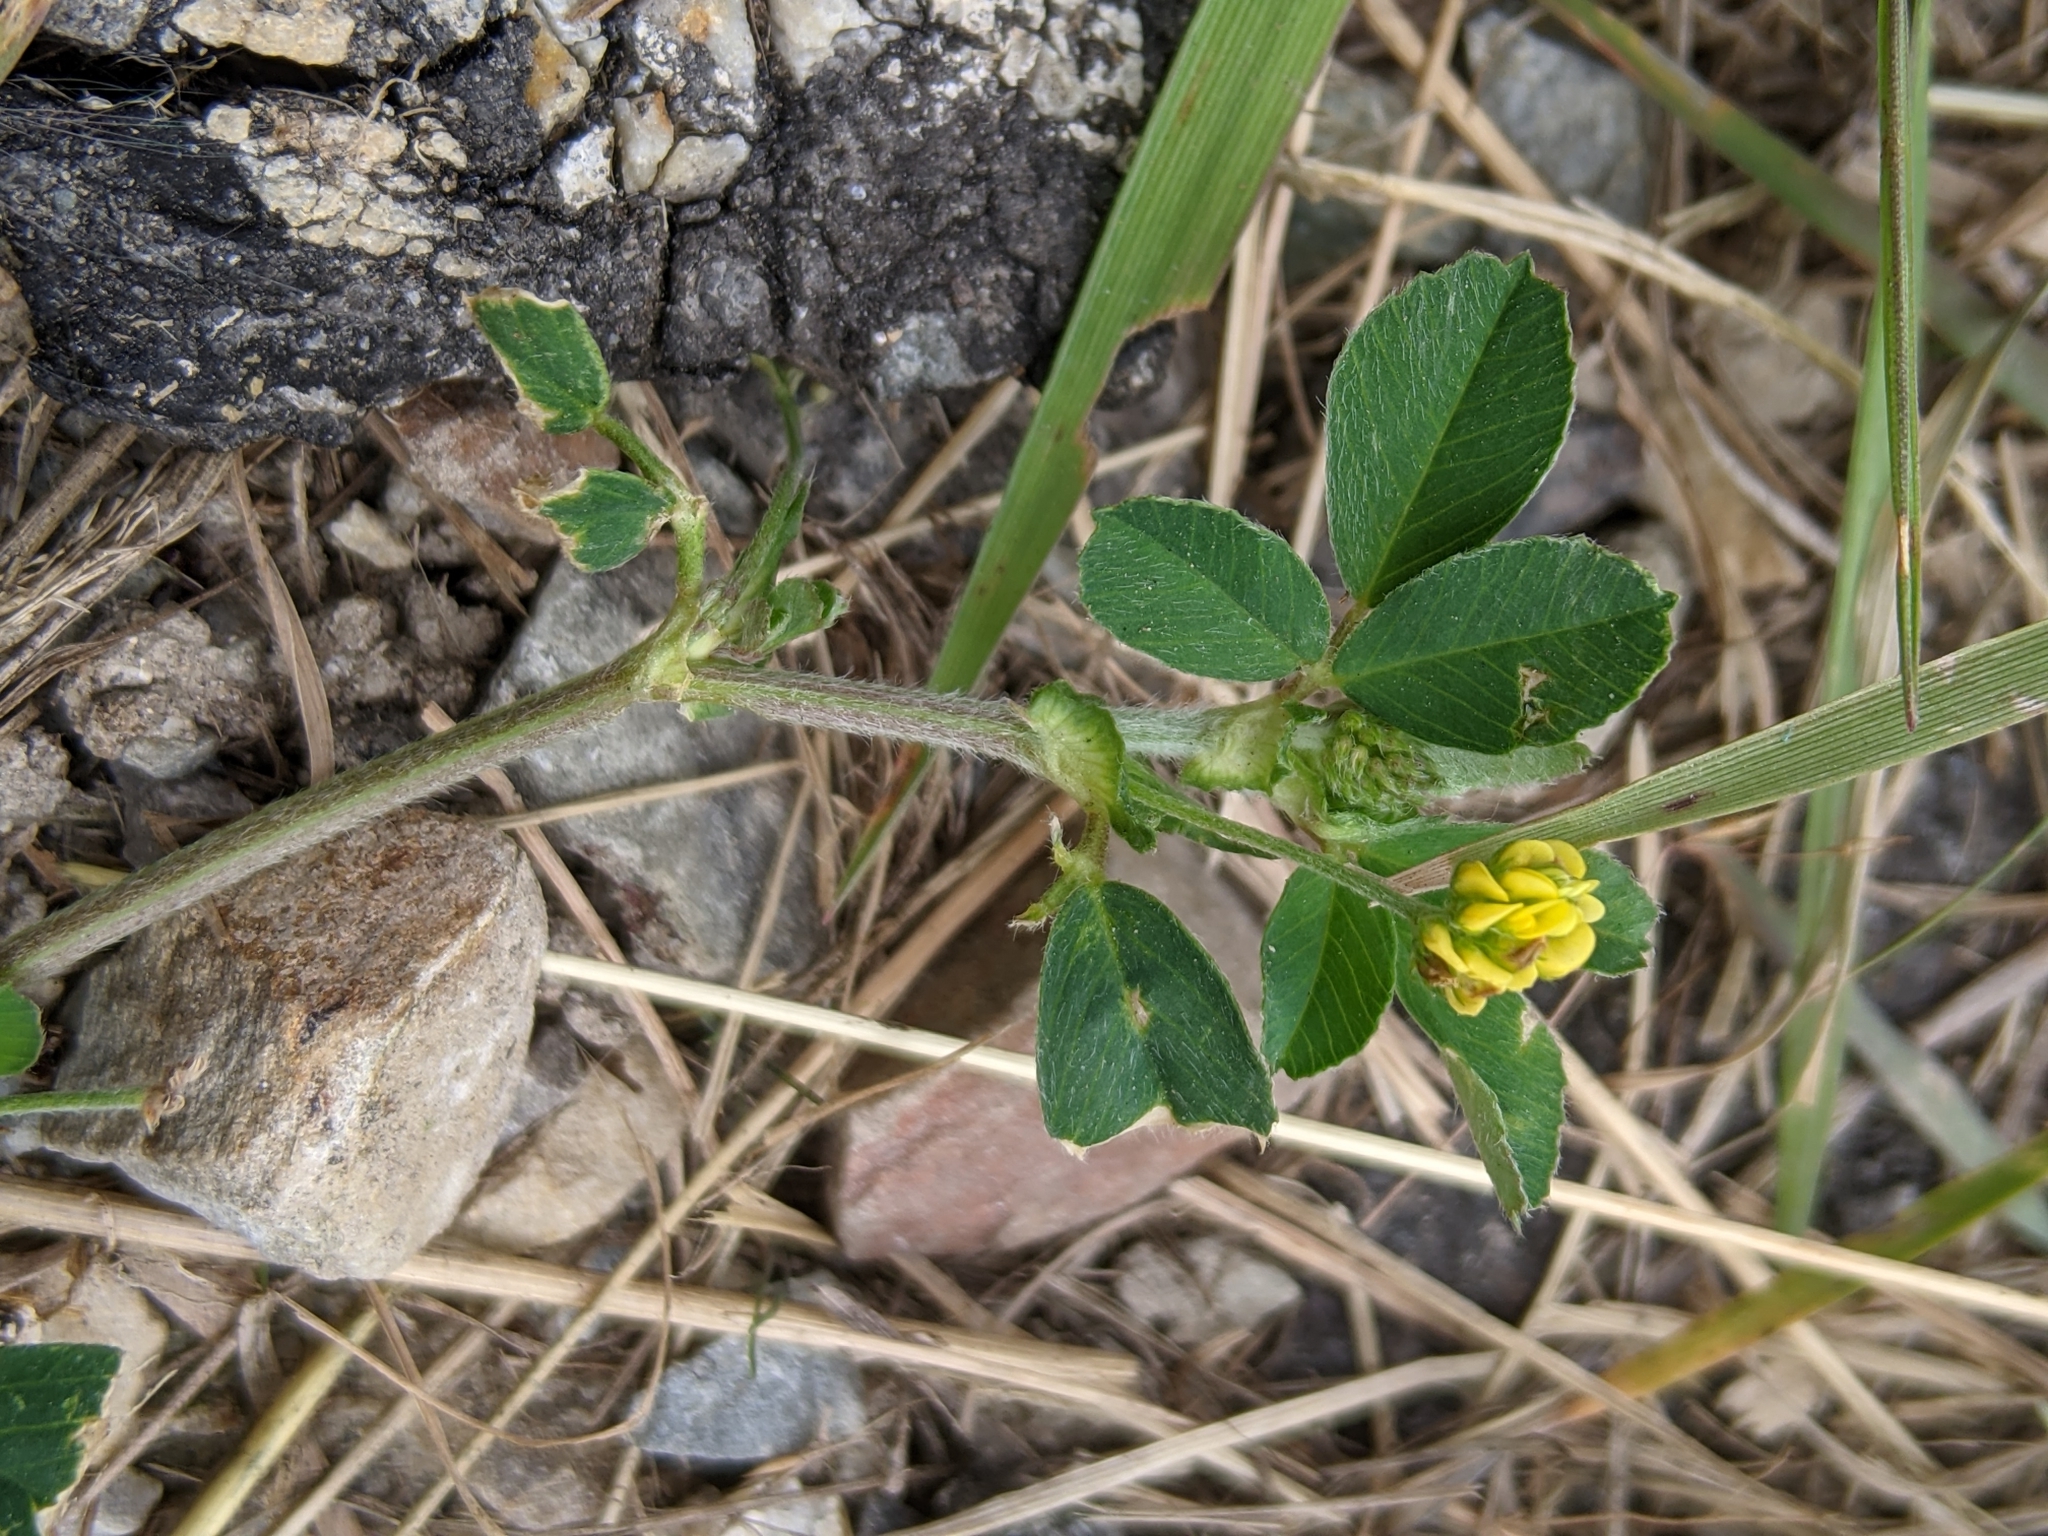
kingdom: Plantae
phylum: Tracheophyta
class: Magnoliopsida
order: Fabales
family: Fabaceae
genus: Medicago
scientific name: Medicago lupulina
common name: Black medick
